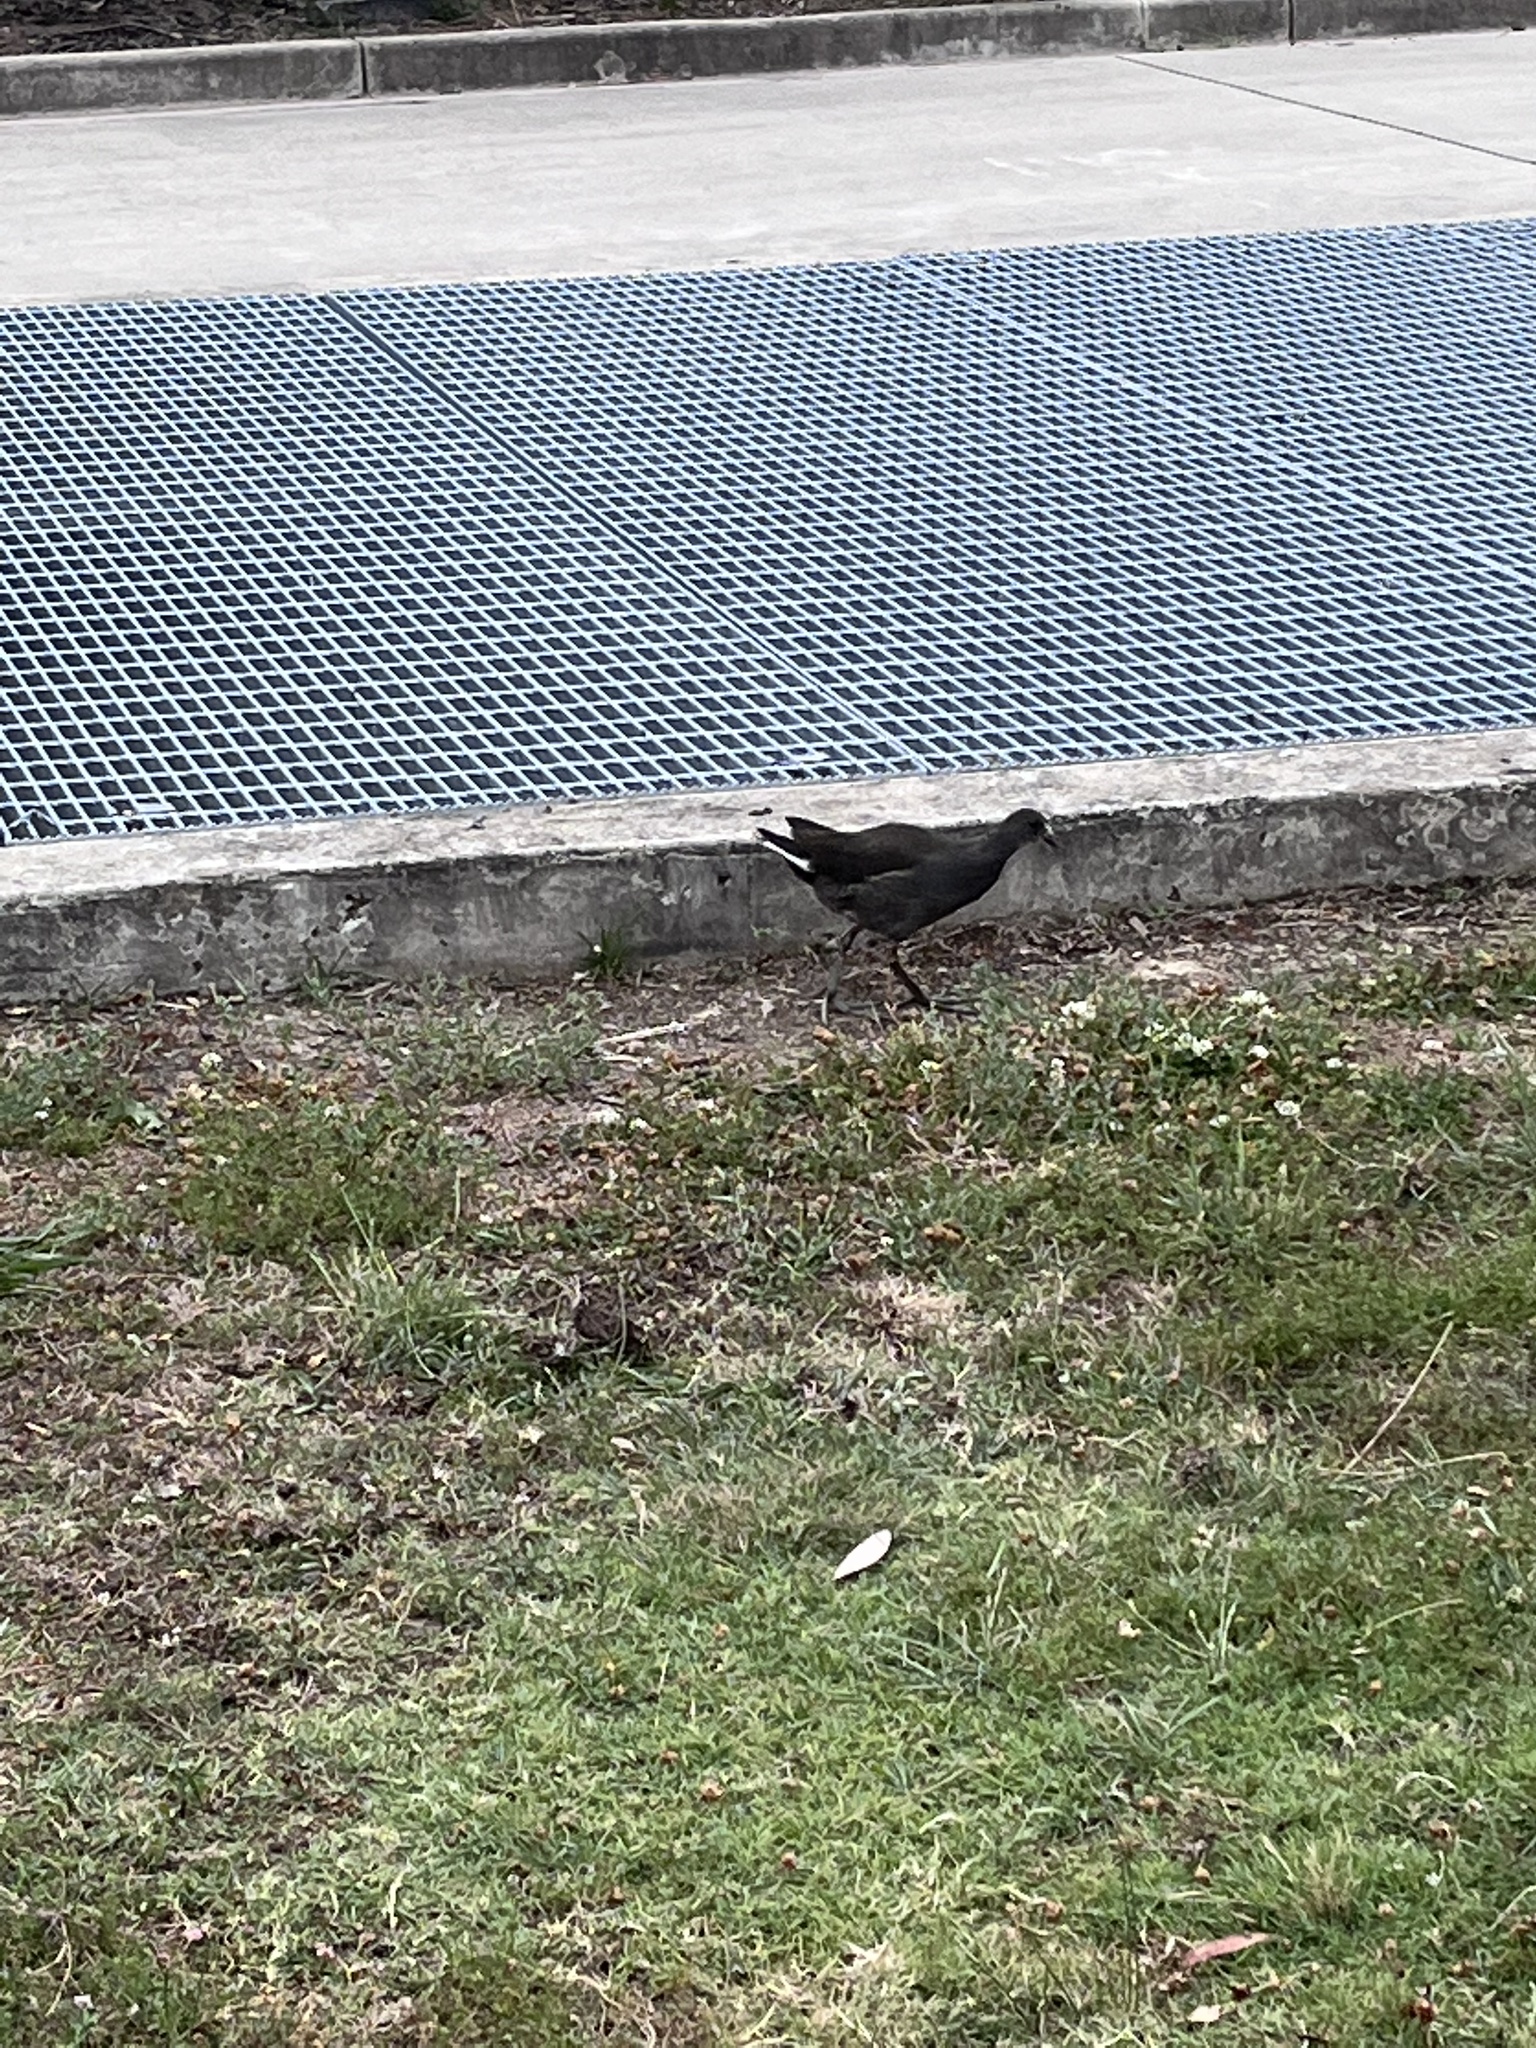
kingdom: Animalia
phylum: Chordata
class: Aves
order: Gruiformes
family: Rallidae
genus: Gallinula
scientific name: Gallinula tenebrosa
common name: Dusky moorhen
